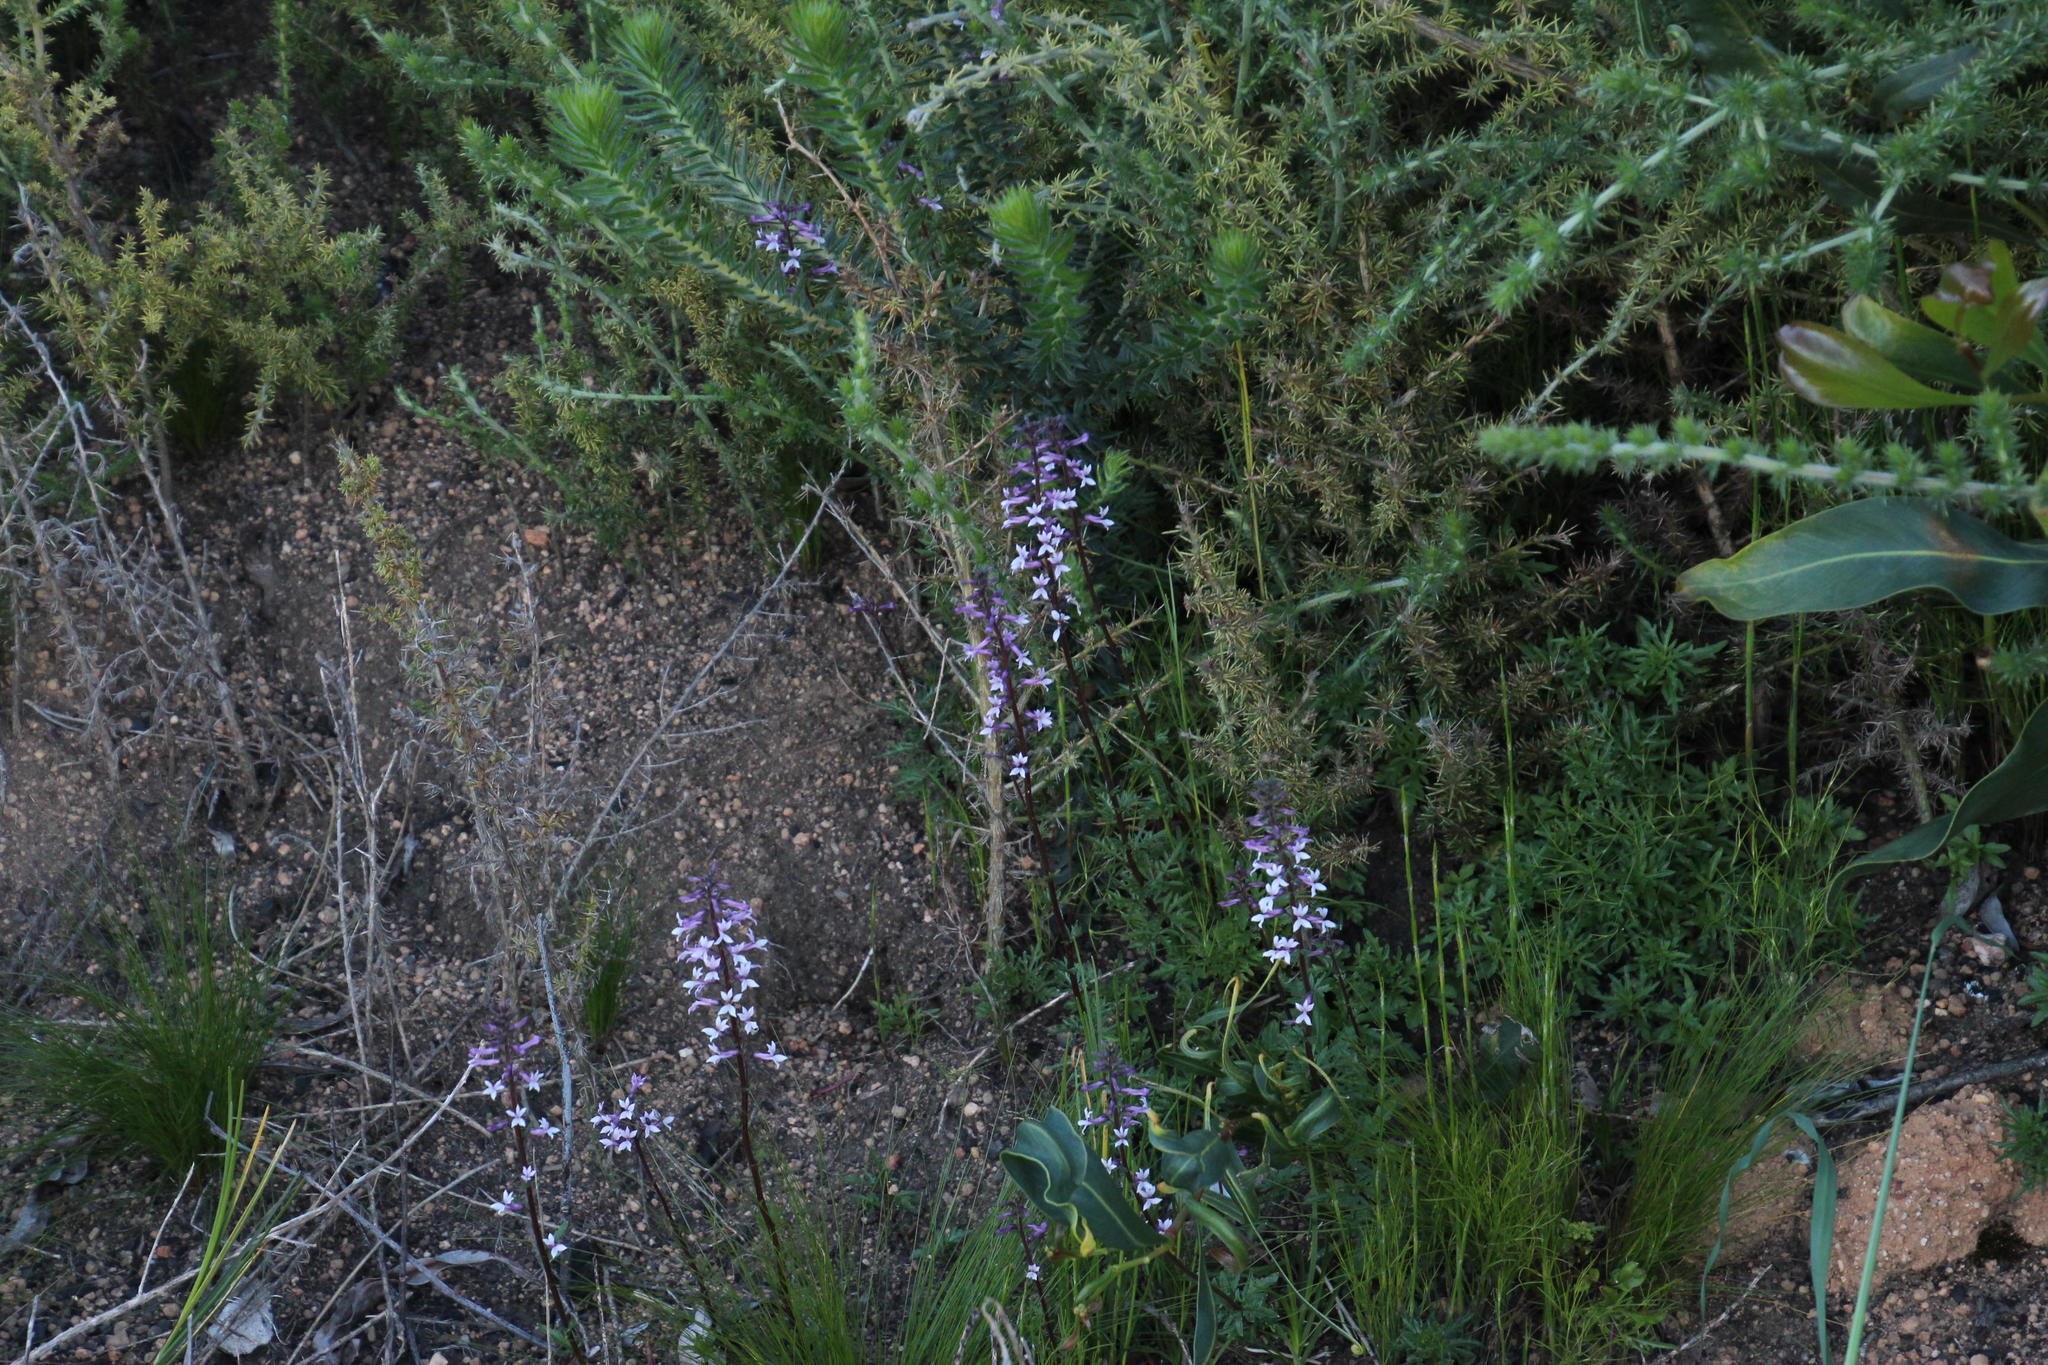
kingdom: Plantae
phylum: Tracheophyta
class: Magnoliopsida
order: Asterales
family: Campanulaceae
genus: Cyphia
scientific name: Cyphia bulbosa
